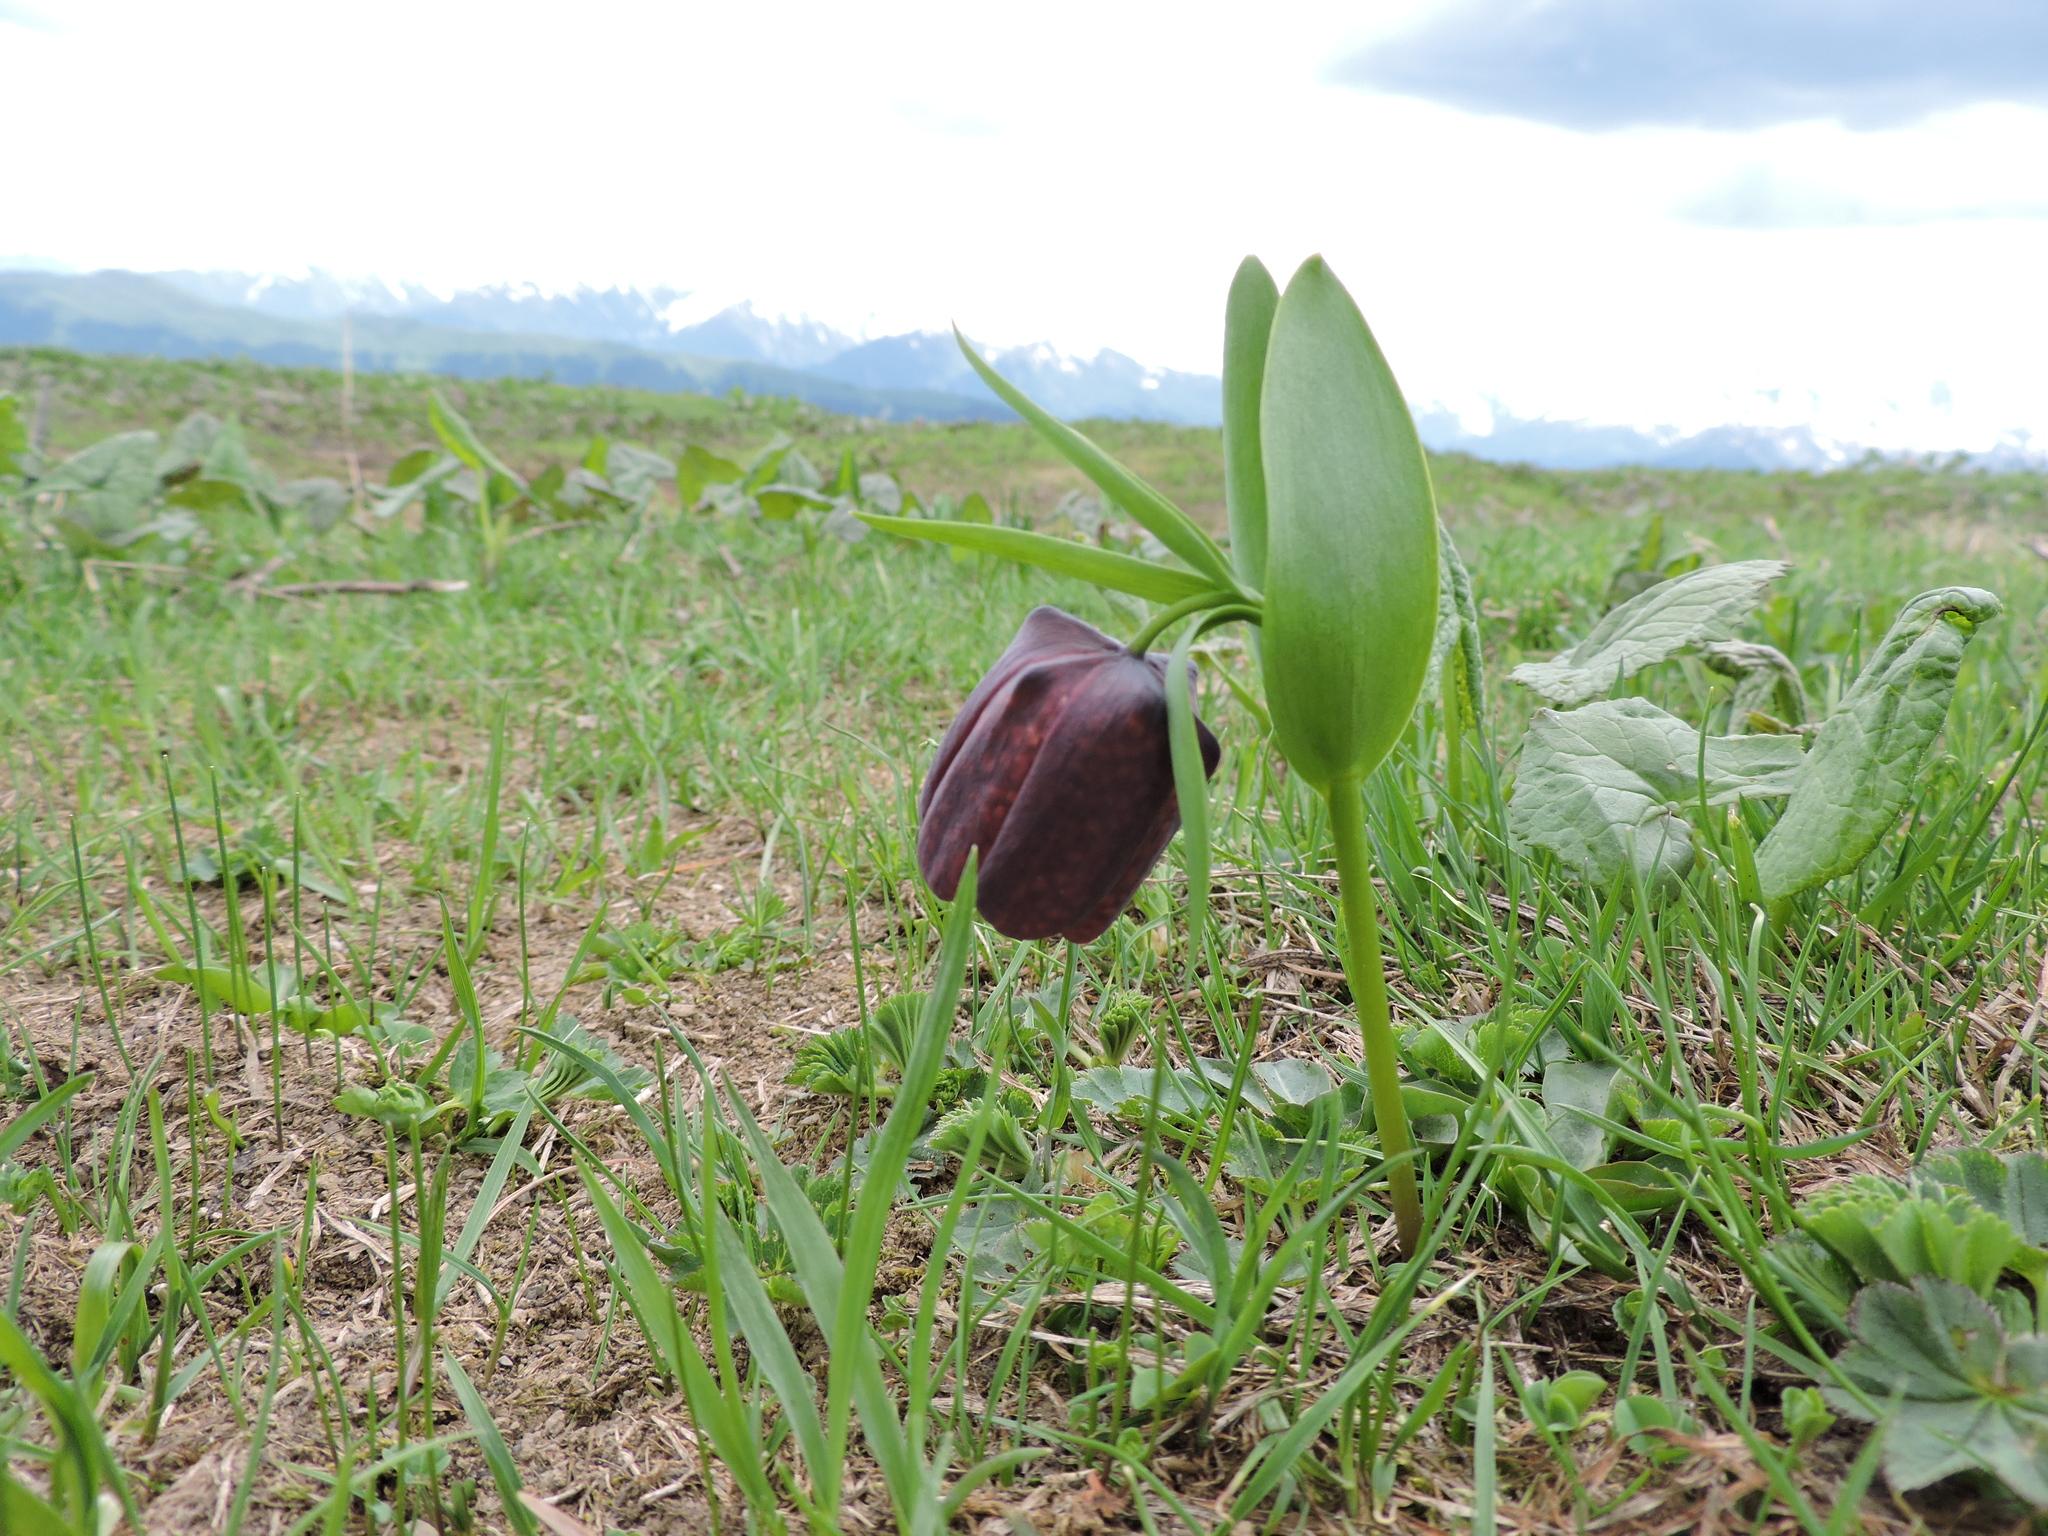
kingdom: Plantae
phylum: Tracheophyta
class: Liliopsida
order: Liliales
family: Liliaceae
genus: Fritillaria
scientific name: Fritillaria latifolia
